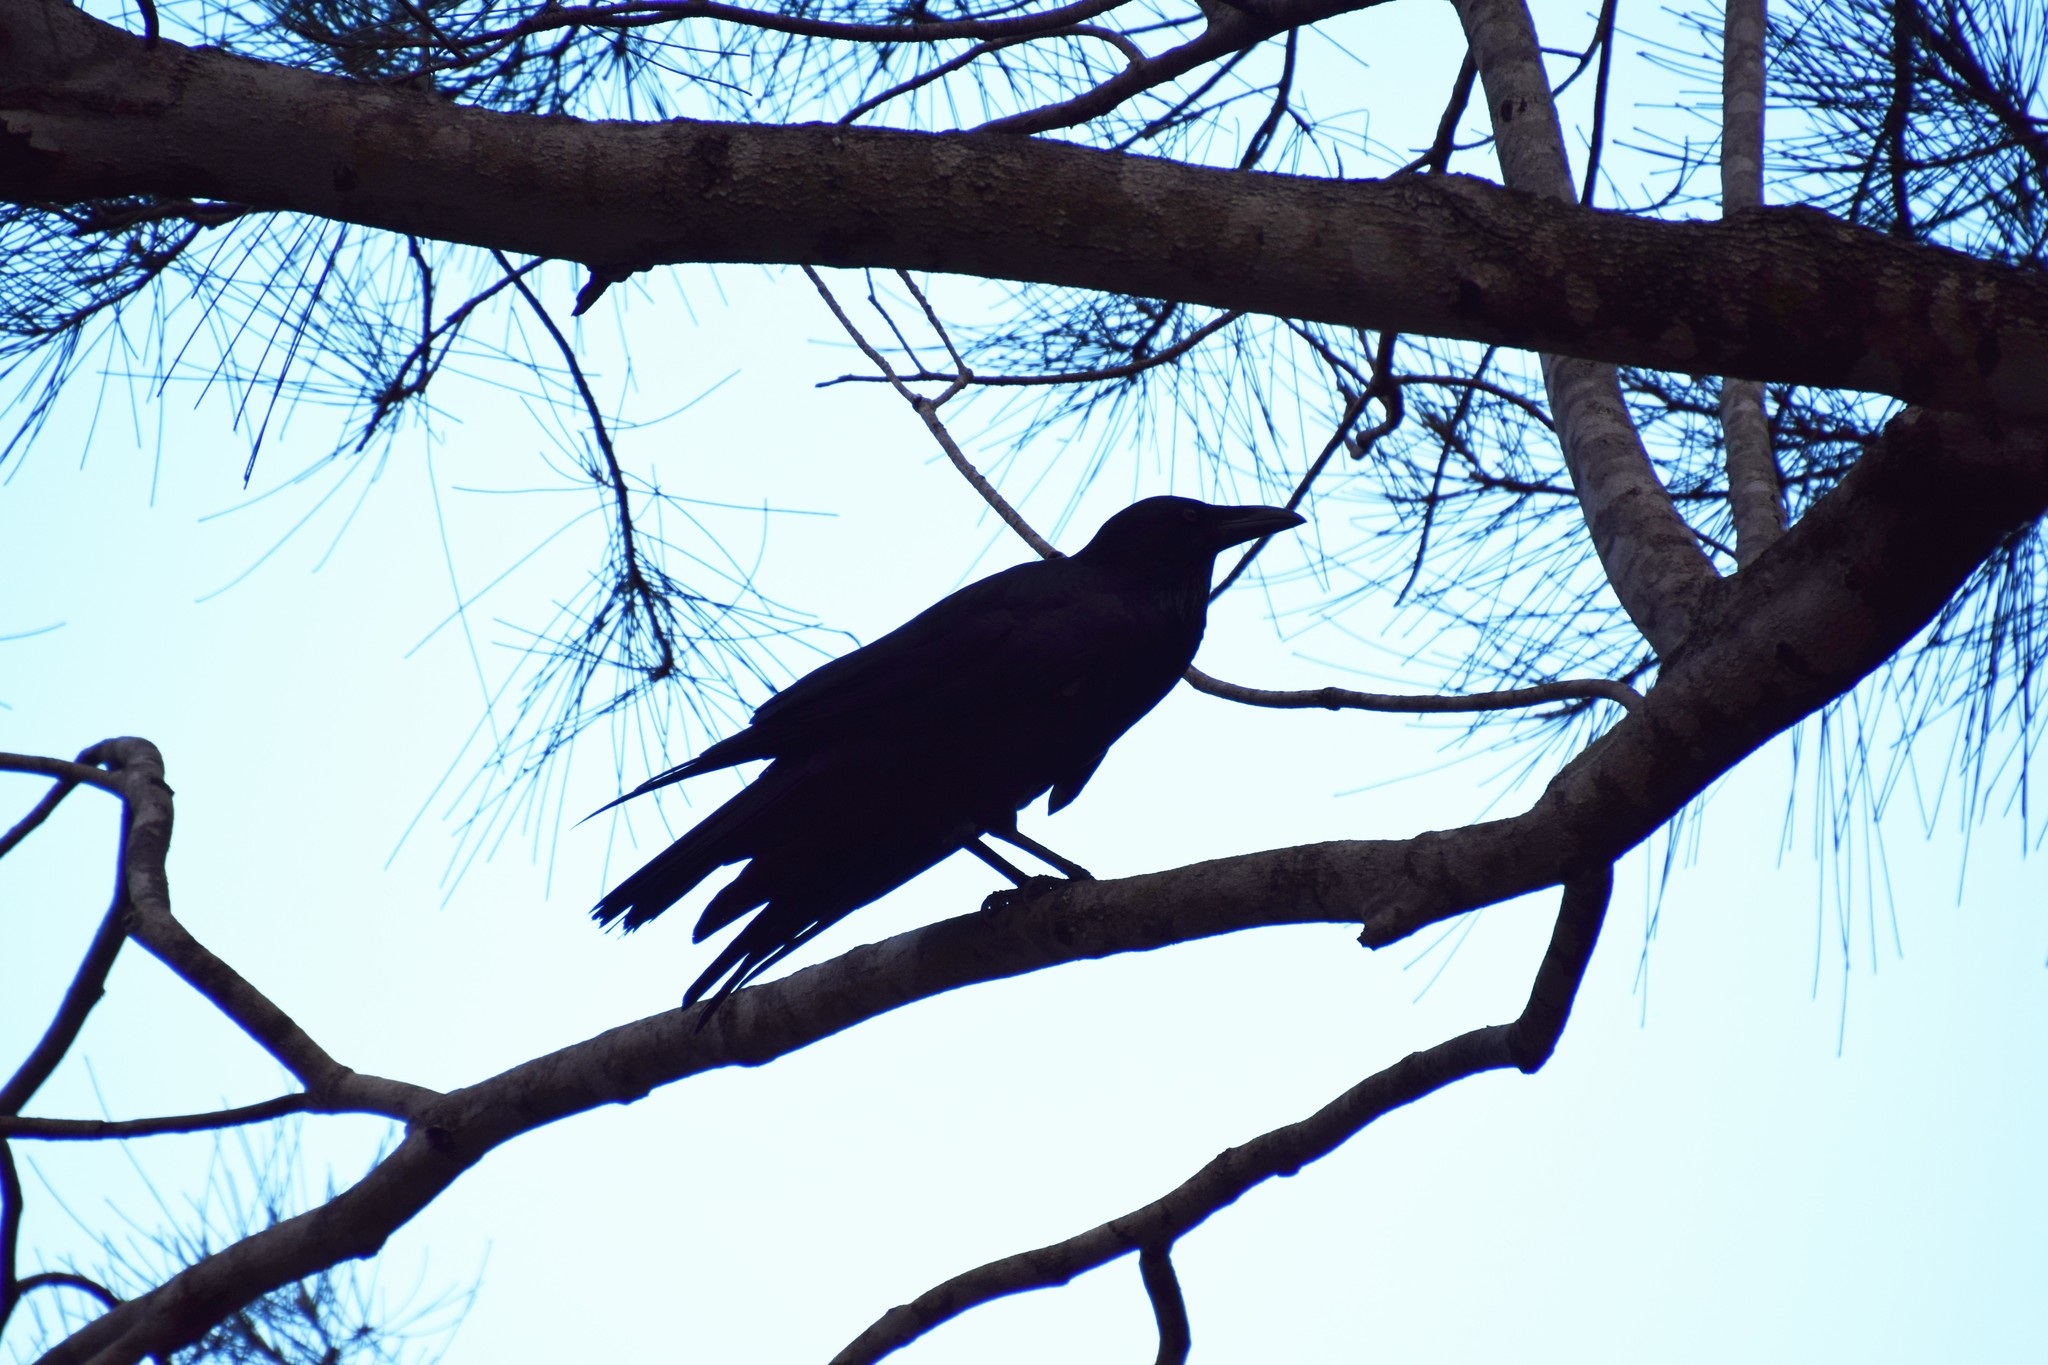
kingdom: Animalia
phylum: Chordata
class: Aves
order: Passeriformes
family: Corvidae
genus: Corvus
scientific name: Corvus coronoides
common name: Australian raven
